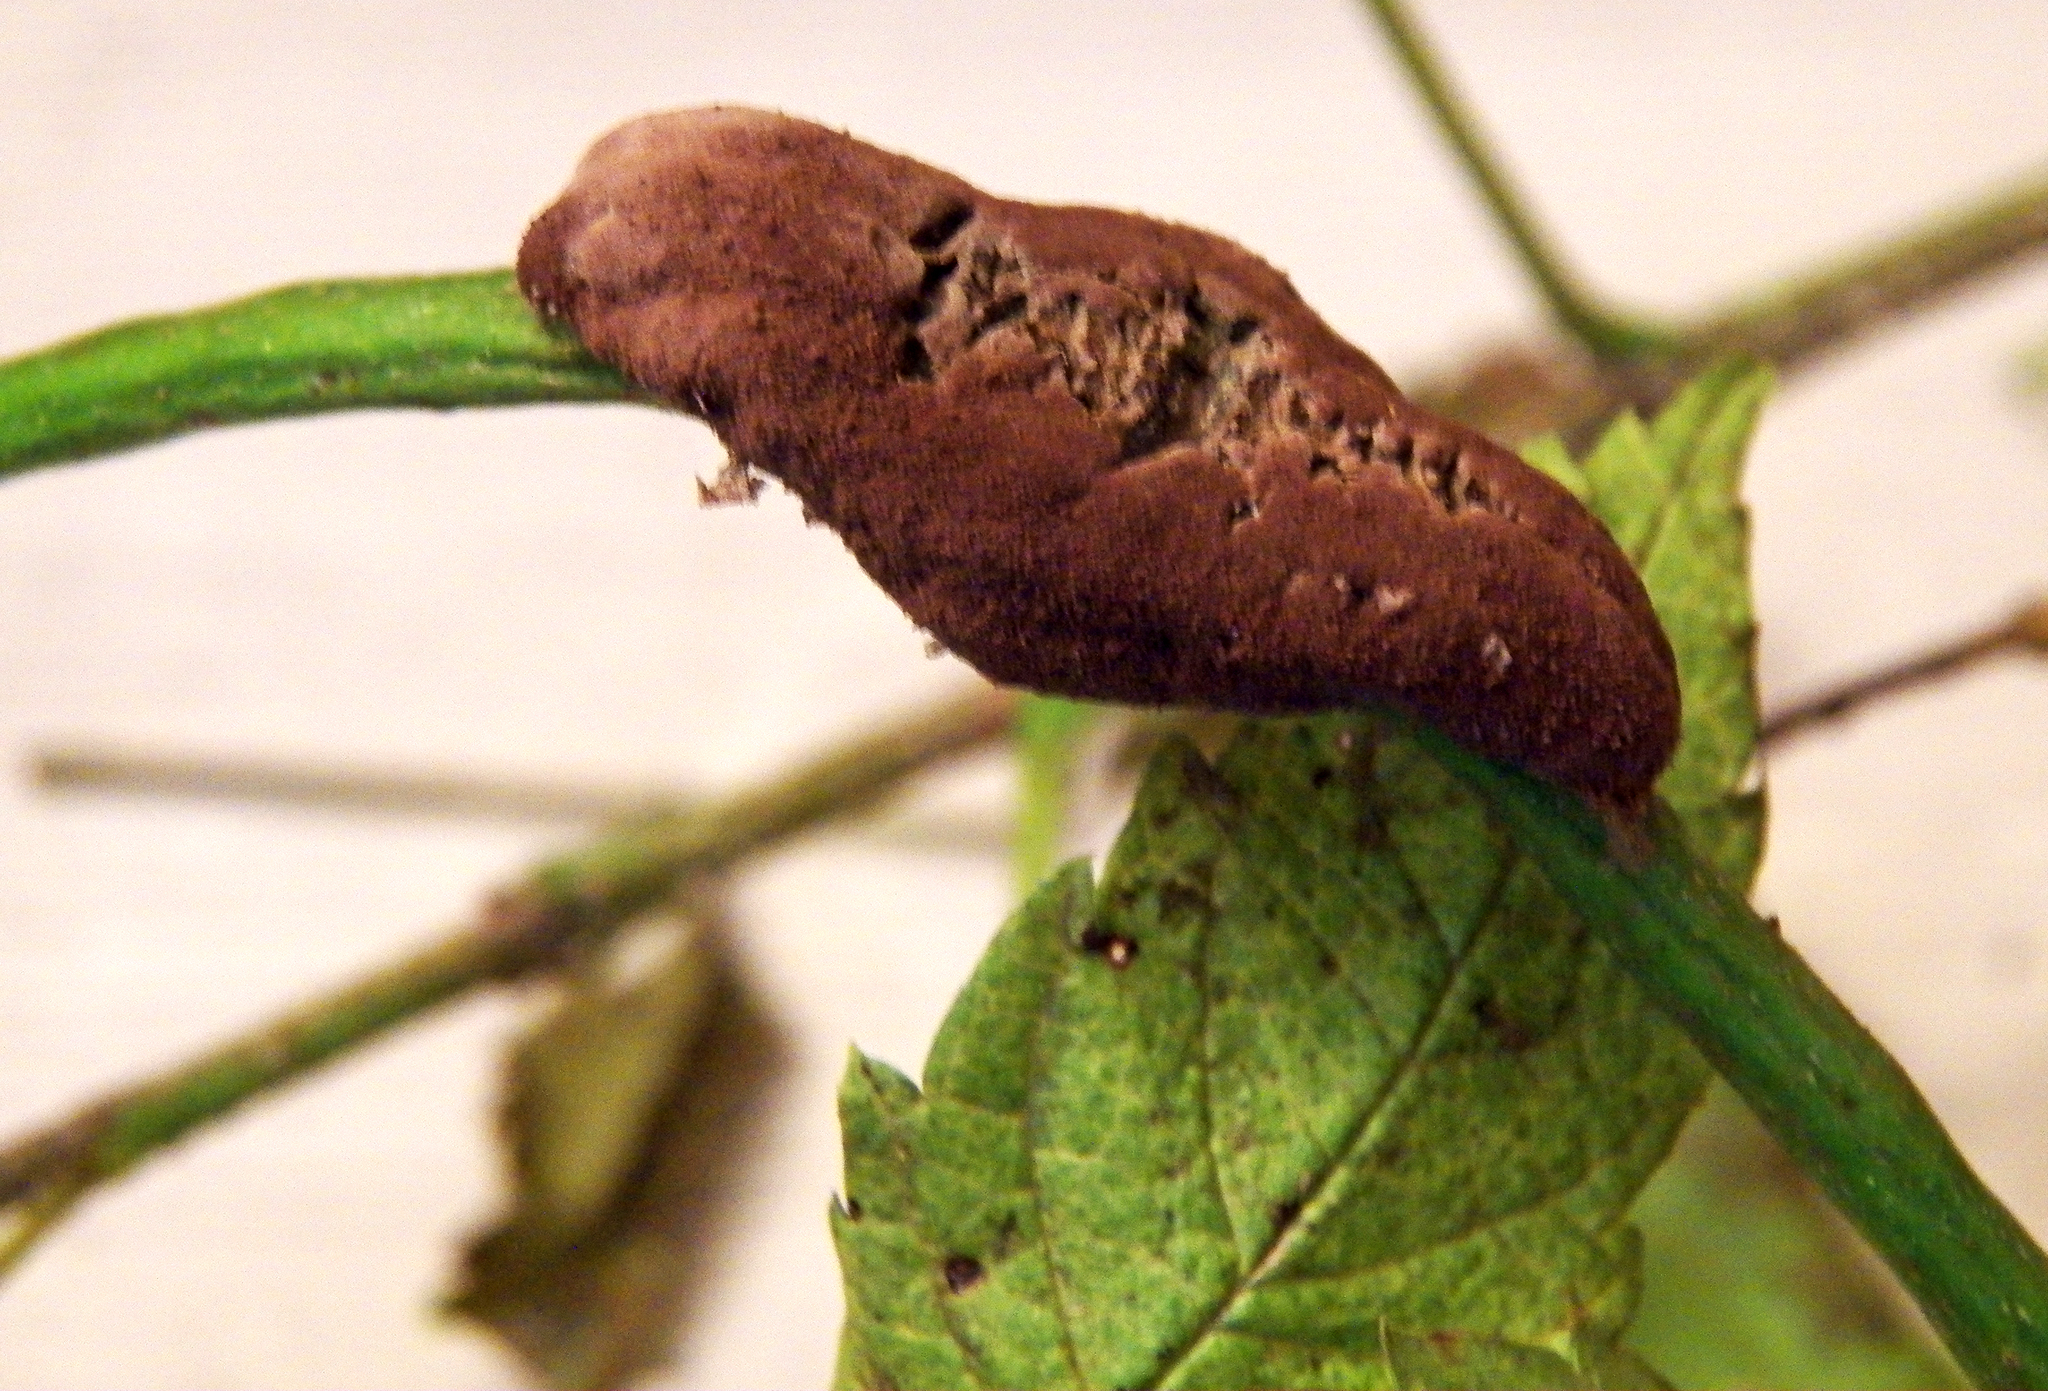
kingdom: Fungi
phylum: Basidiomycota
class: Pucciniomycetes
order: Pucciniales
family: Uropyxidaceae
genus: Prospodium
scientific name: Prospodium transformans
